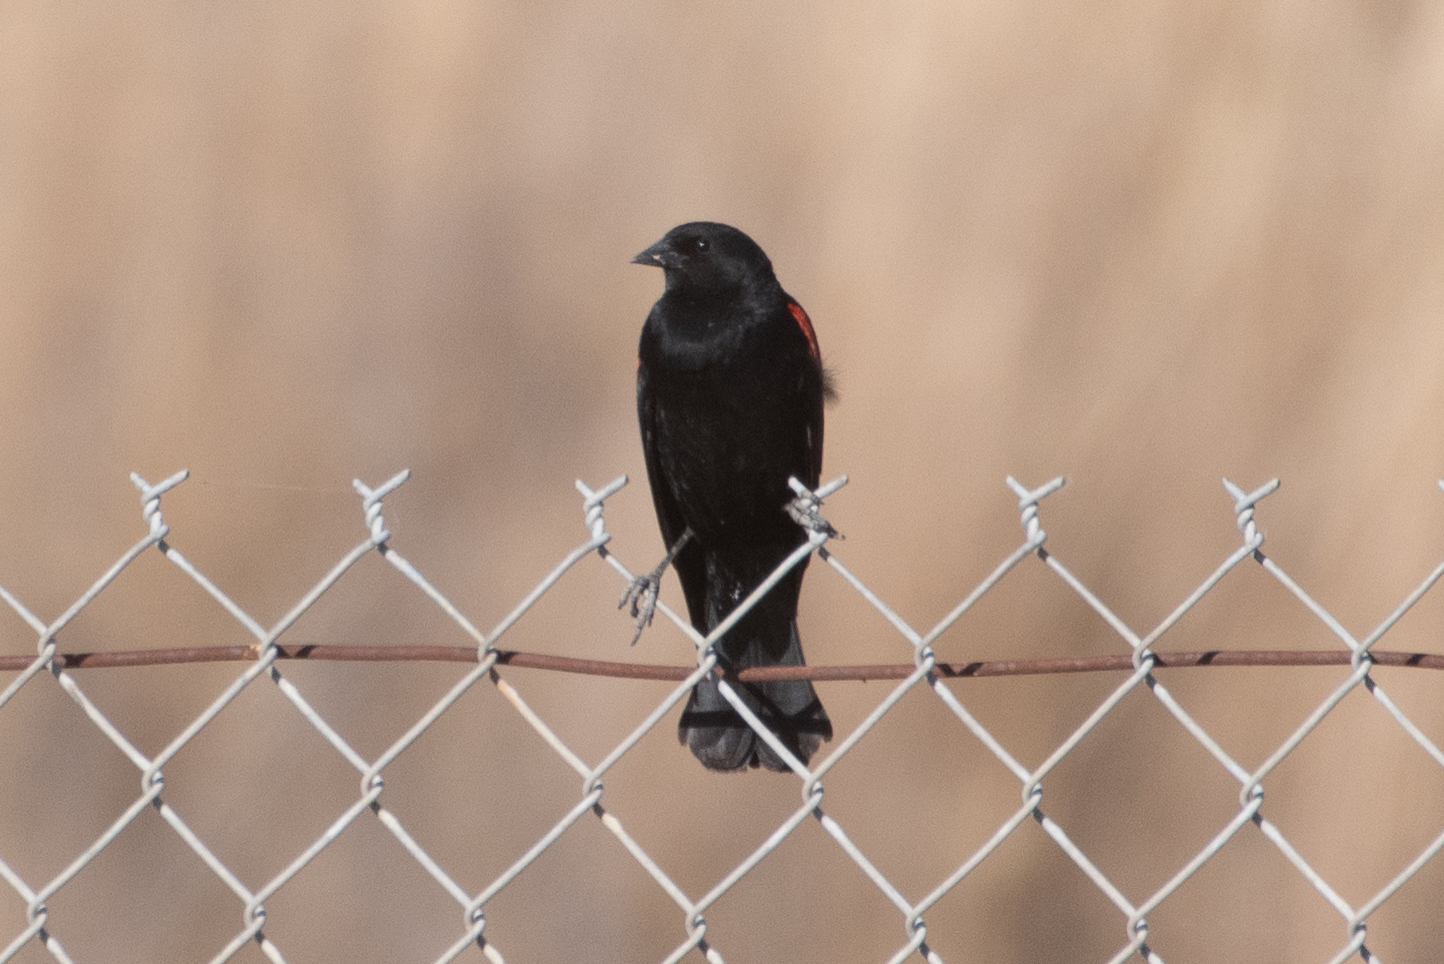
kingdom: Animalia
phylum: Chordata
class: Aves
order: Passeriformes
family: Icteridae
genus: Agelaius
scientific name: Agelaius phoeniceus
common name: Red-winged blackbird
